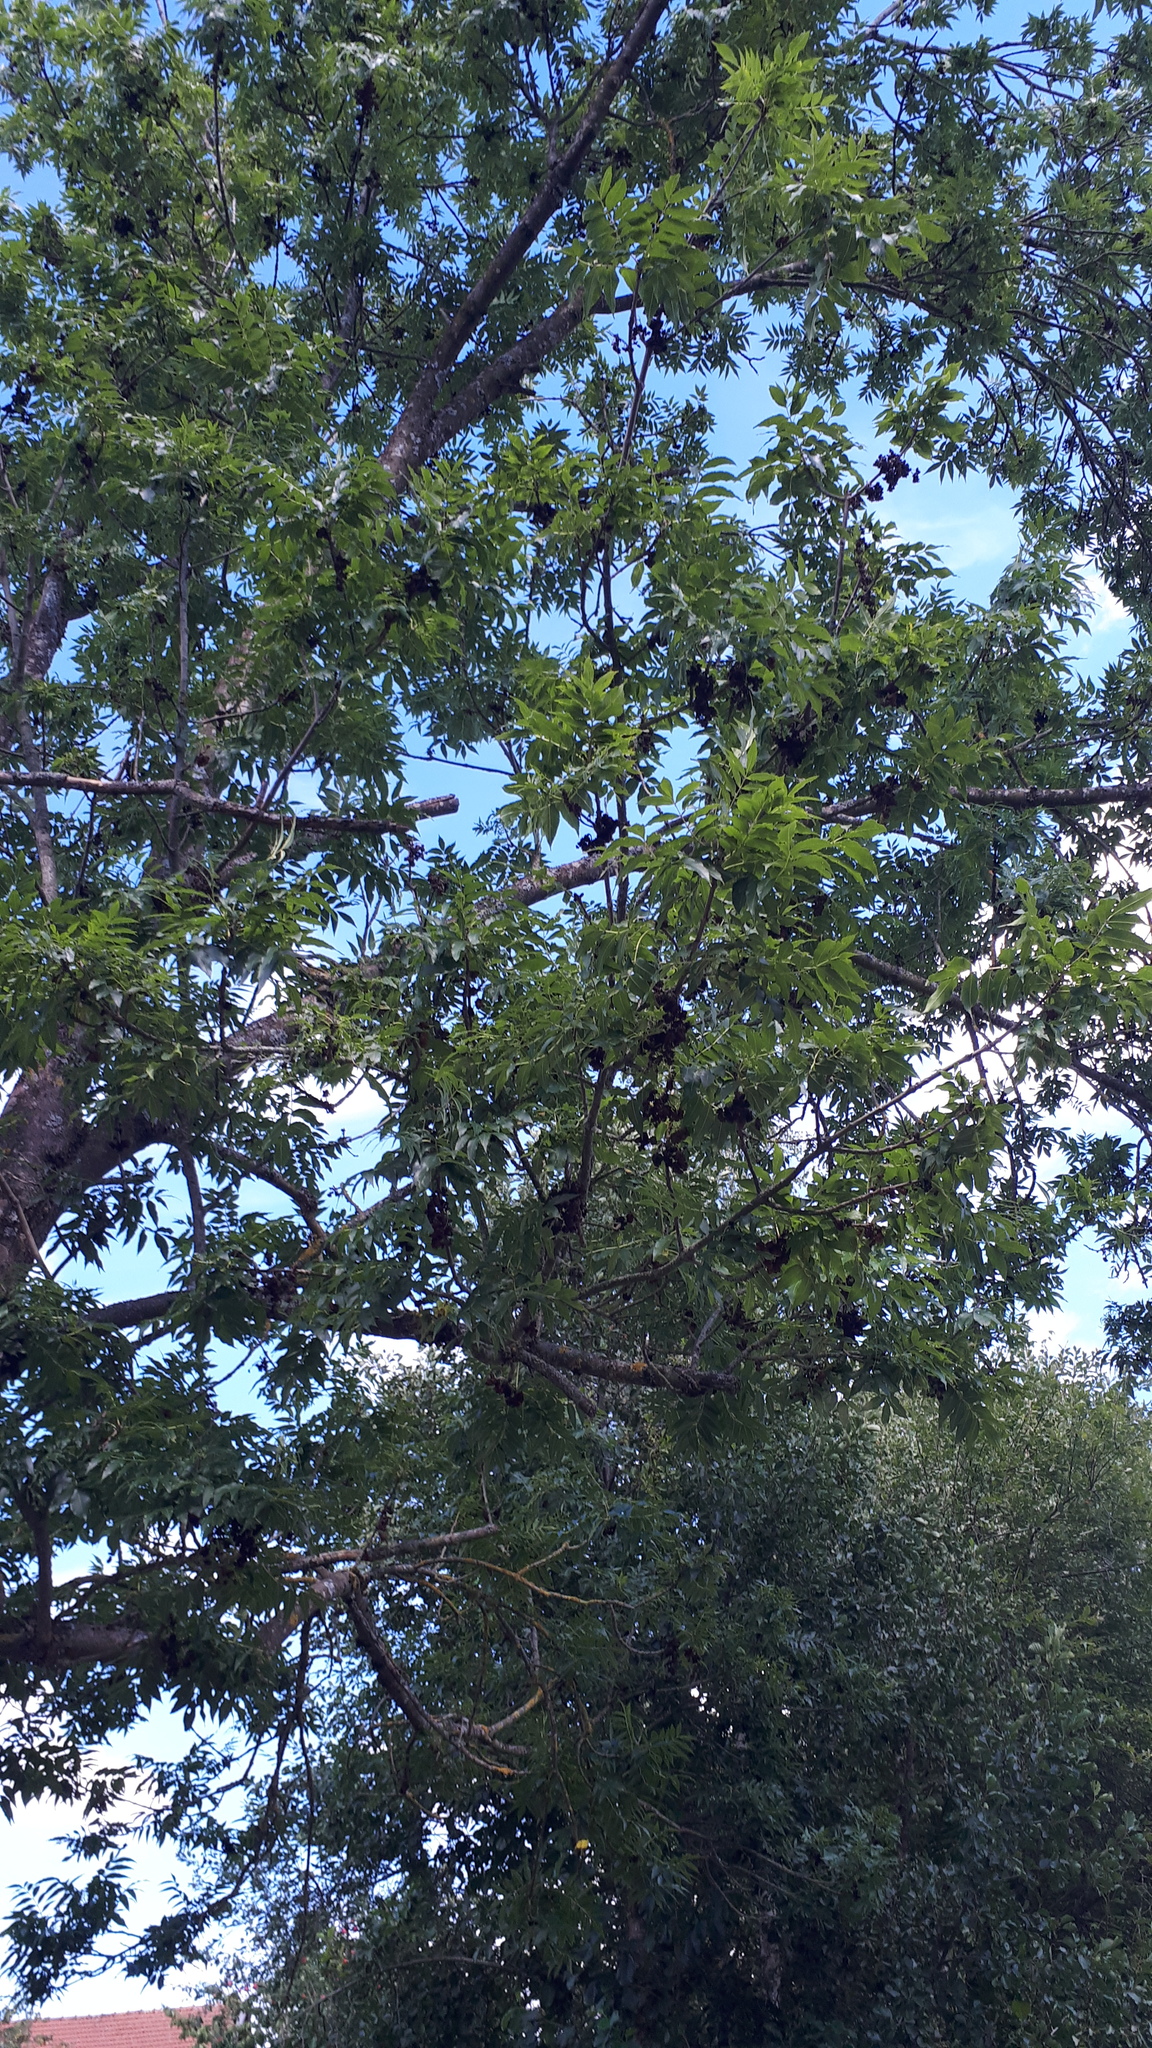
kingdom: Animalia
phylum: Arthropoda
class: Arachnida
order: Trombidiformes
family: Eriophyidae
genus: Aceria
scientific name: Aceria fraxinivora
